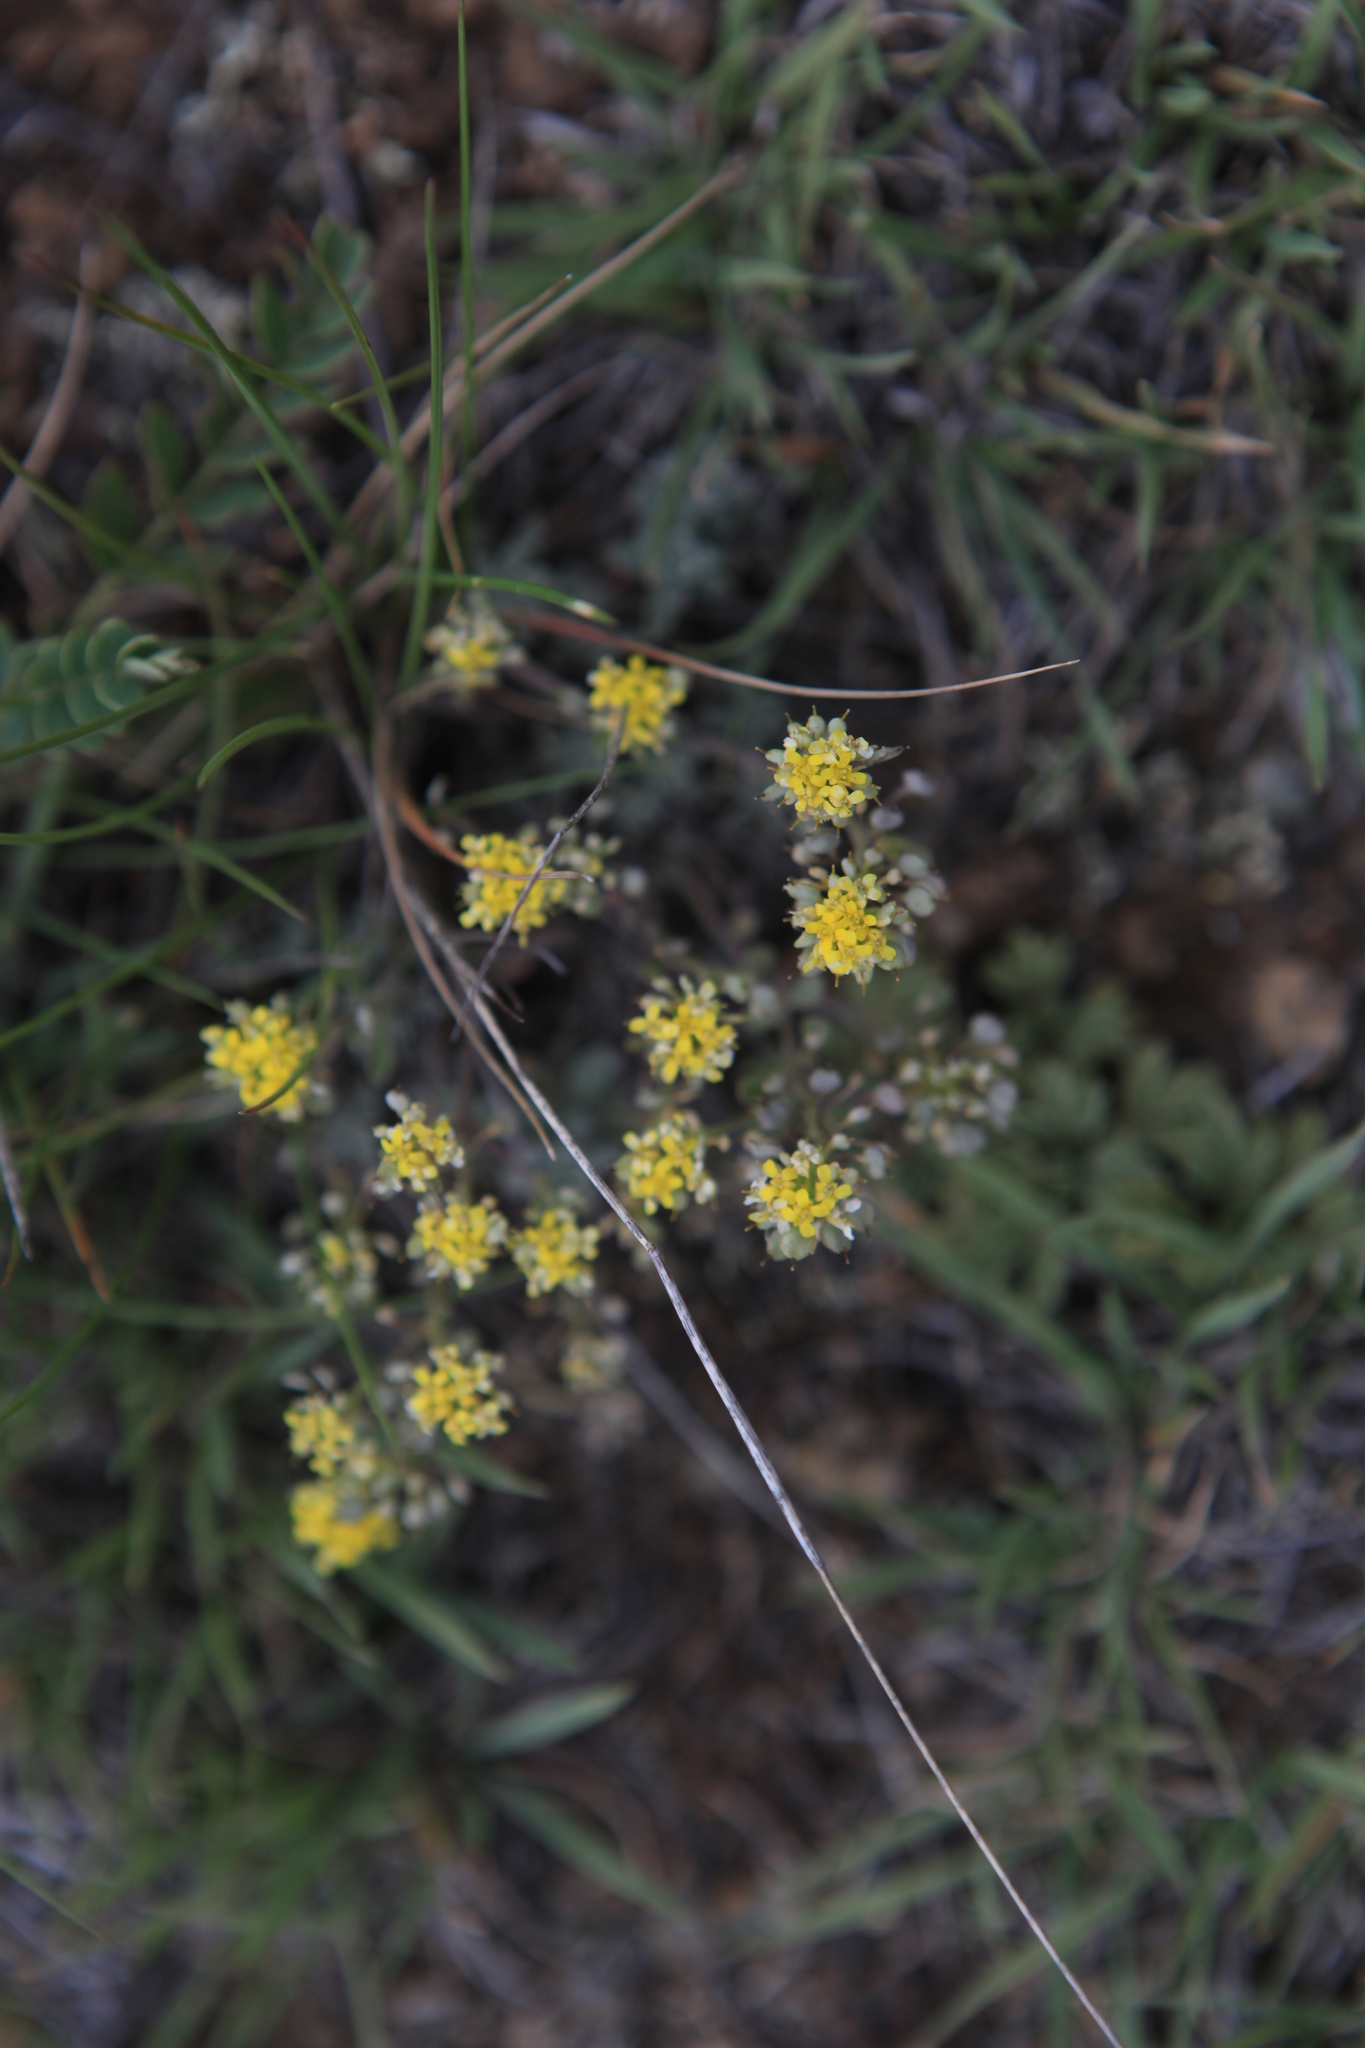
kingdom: Plantae
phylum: Tracheophyta
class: Magnoliopsida
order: Brassicales
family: Brassicaceae
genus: Odontarrhena
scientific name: Odontarrhena obovata
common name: American alyssum
